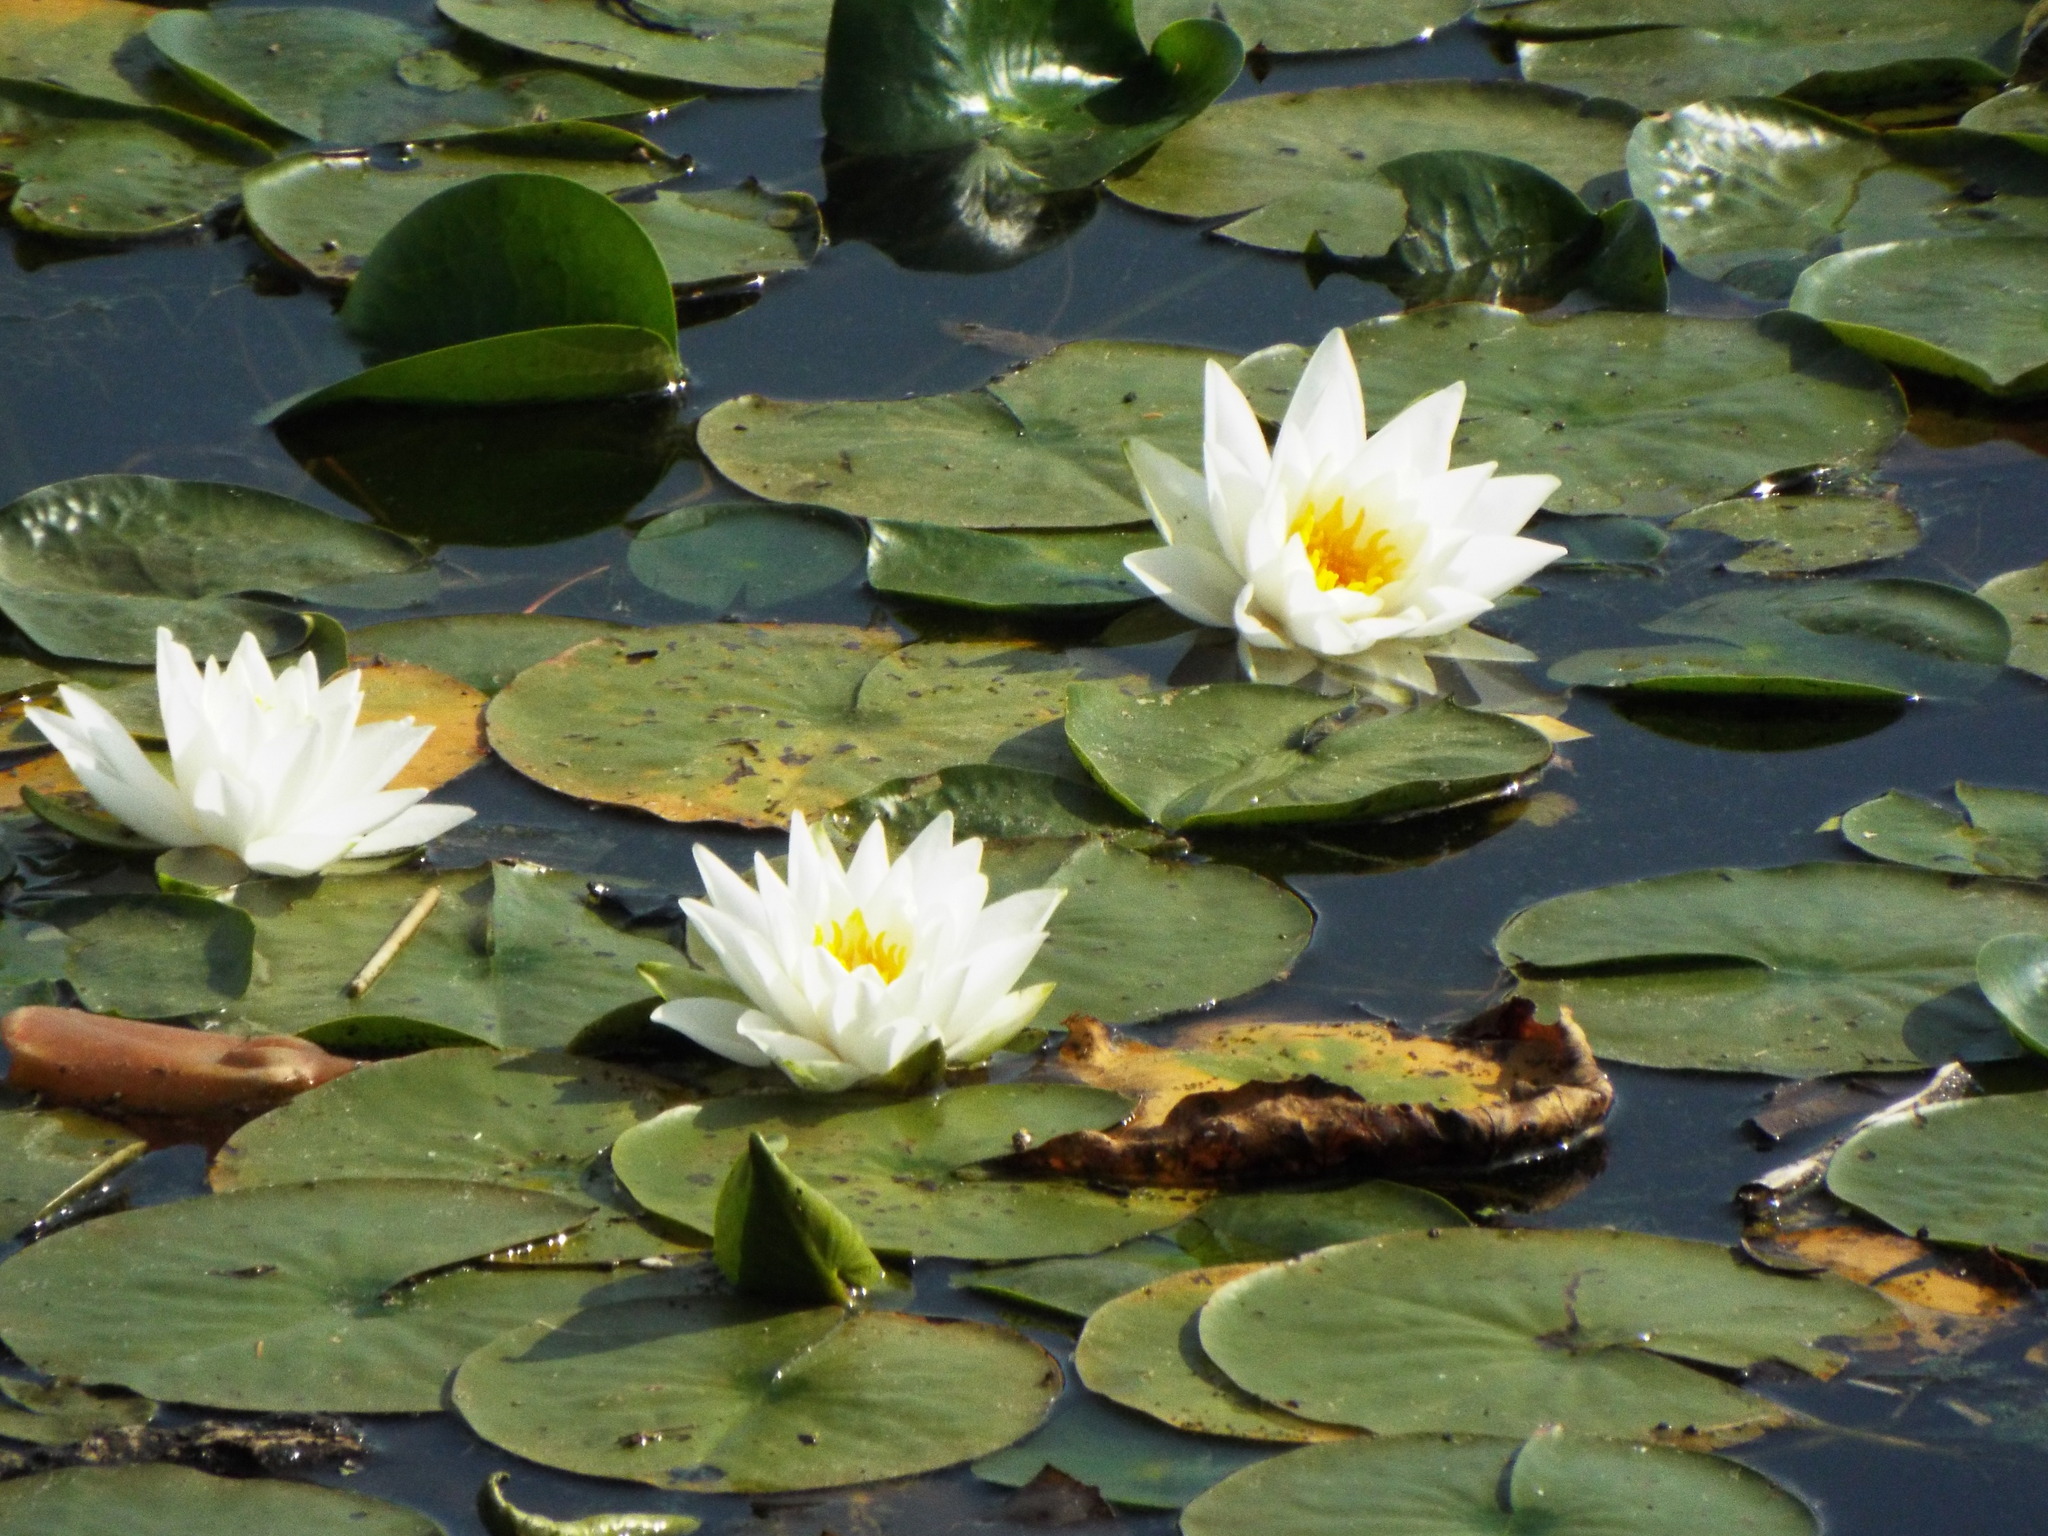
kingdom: Plantae
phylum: Tracheophyta
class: Magnoliopsida
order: Nymphaeales
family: Nymphaeaceae
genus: Nymphaea
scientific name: Nymphaea odorata
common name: Fragrant water-lily
